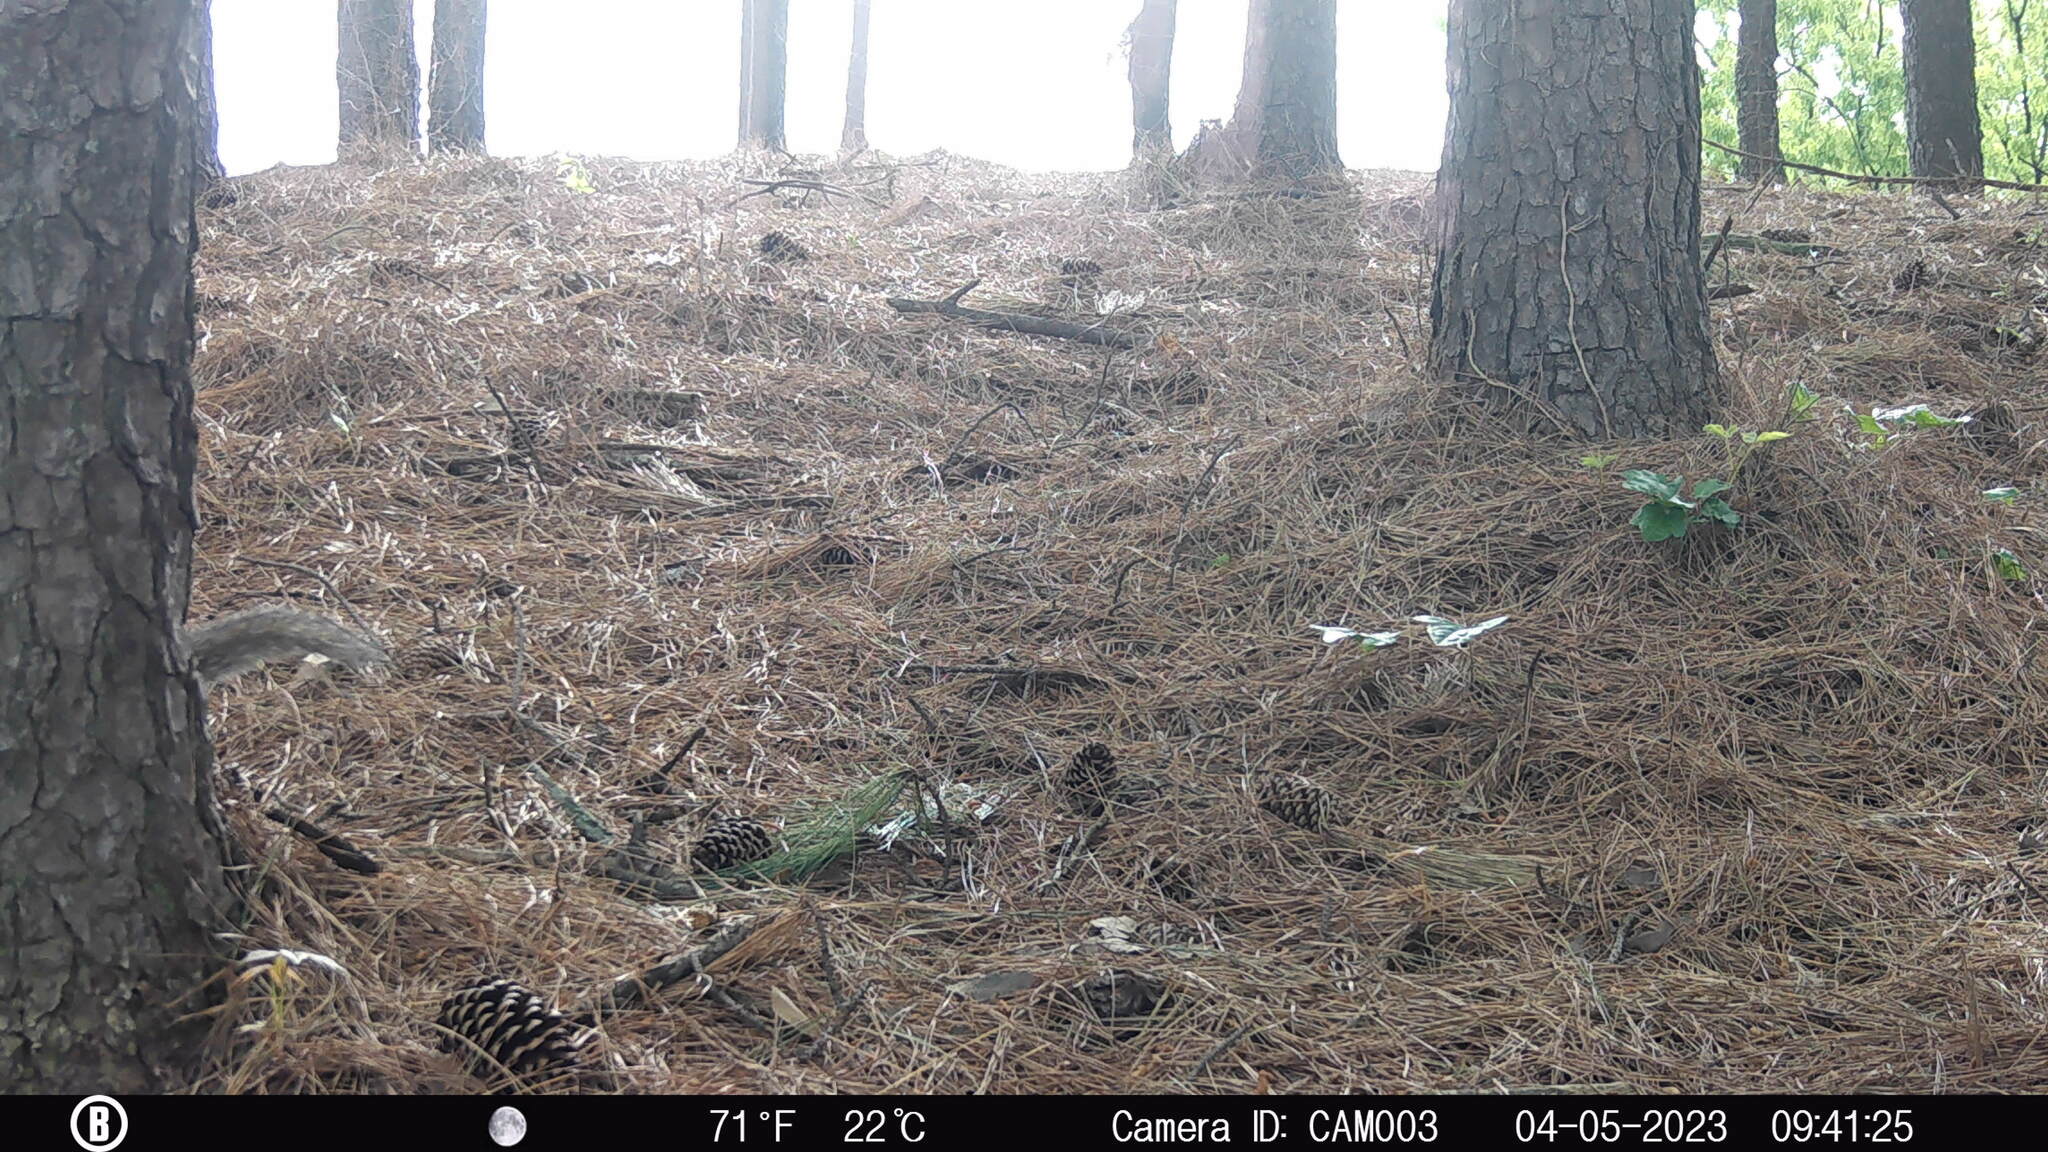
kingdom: Animalia
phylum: Chordata
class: Mammalia
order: Rodentia
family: Sciuridae
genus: Sciurus
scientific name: Sciurus carolinensis
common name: Eastern gray squirrel
